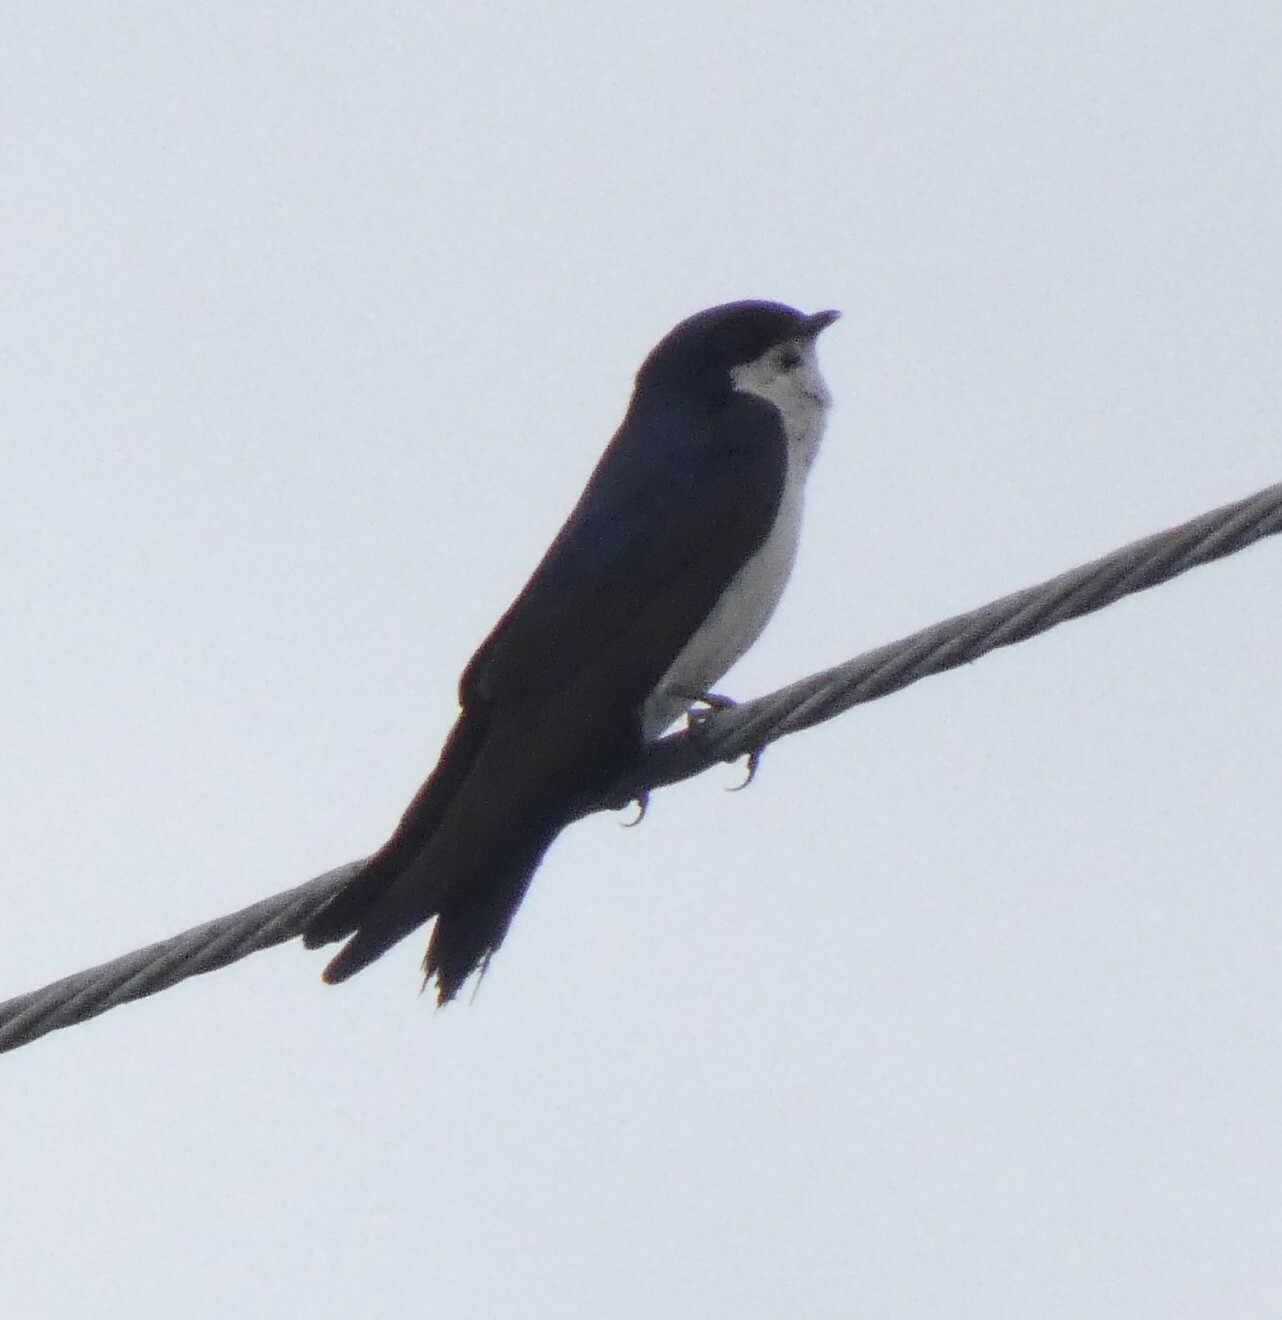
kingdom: Animalia
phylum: Chordata
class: Aves
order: Passeriformes
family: Hirundinidae
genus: Notiochelidon
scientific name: Notiochelidon cyanoleuca
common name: Blue-and-white swallow
